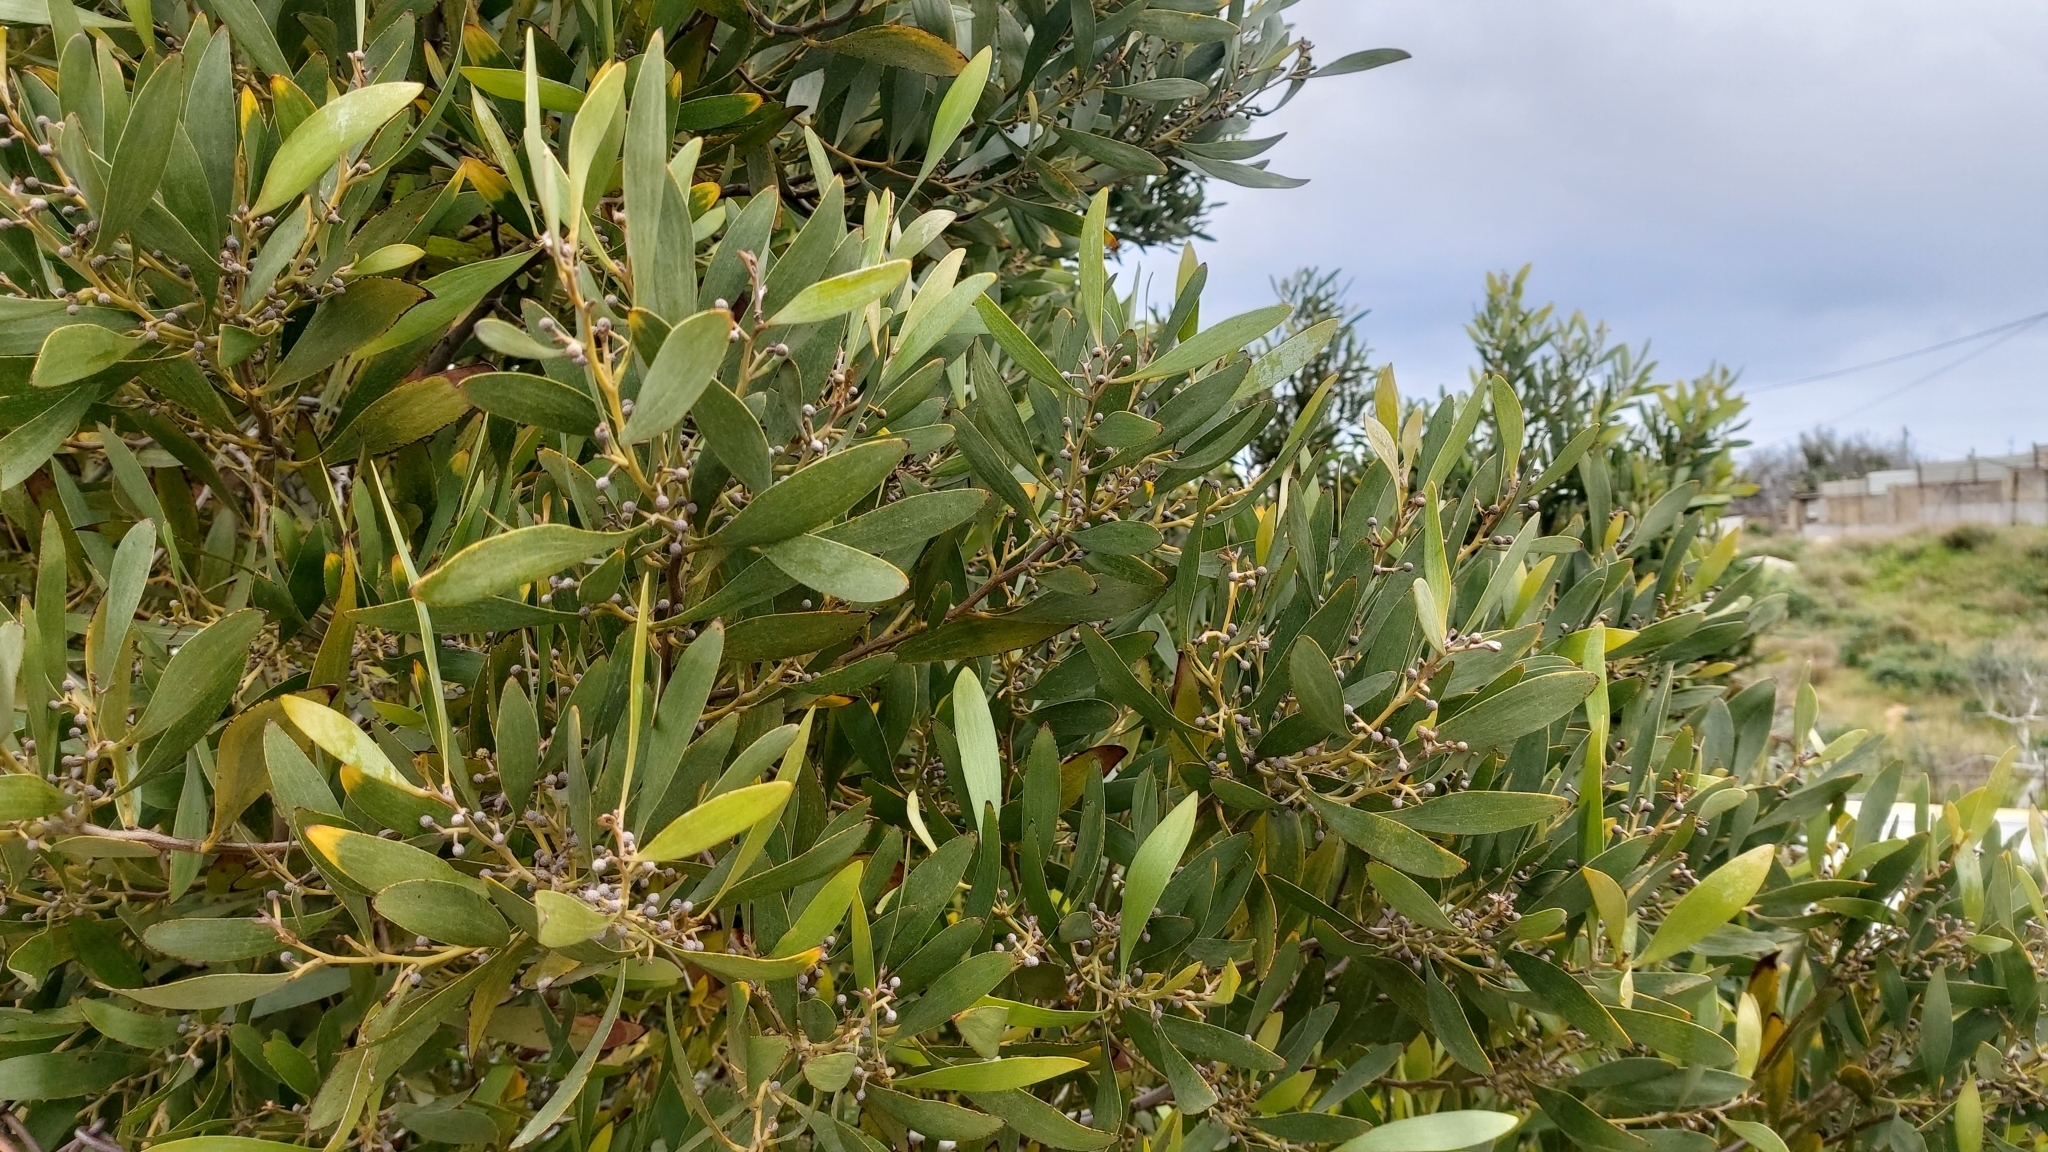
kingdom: Plantae
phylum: Tracheophyta
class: Magnoliopsida
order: Fabales
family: Fabaceae
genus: Acacia
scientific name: Acacia melanoxylon
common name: Blackwood
